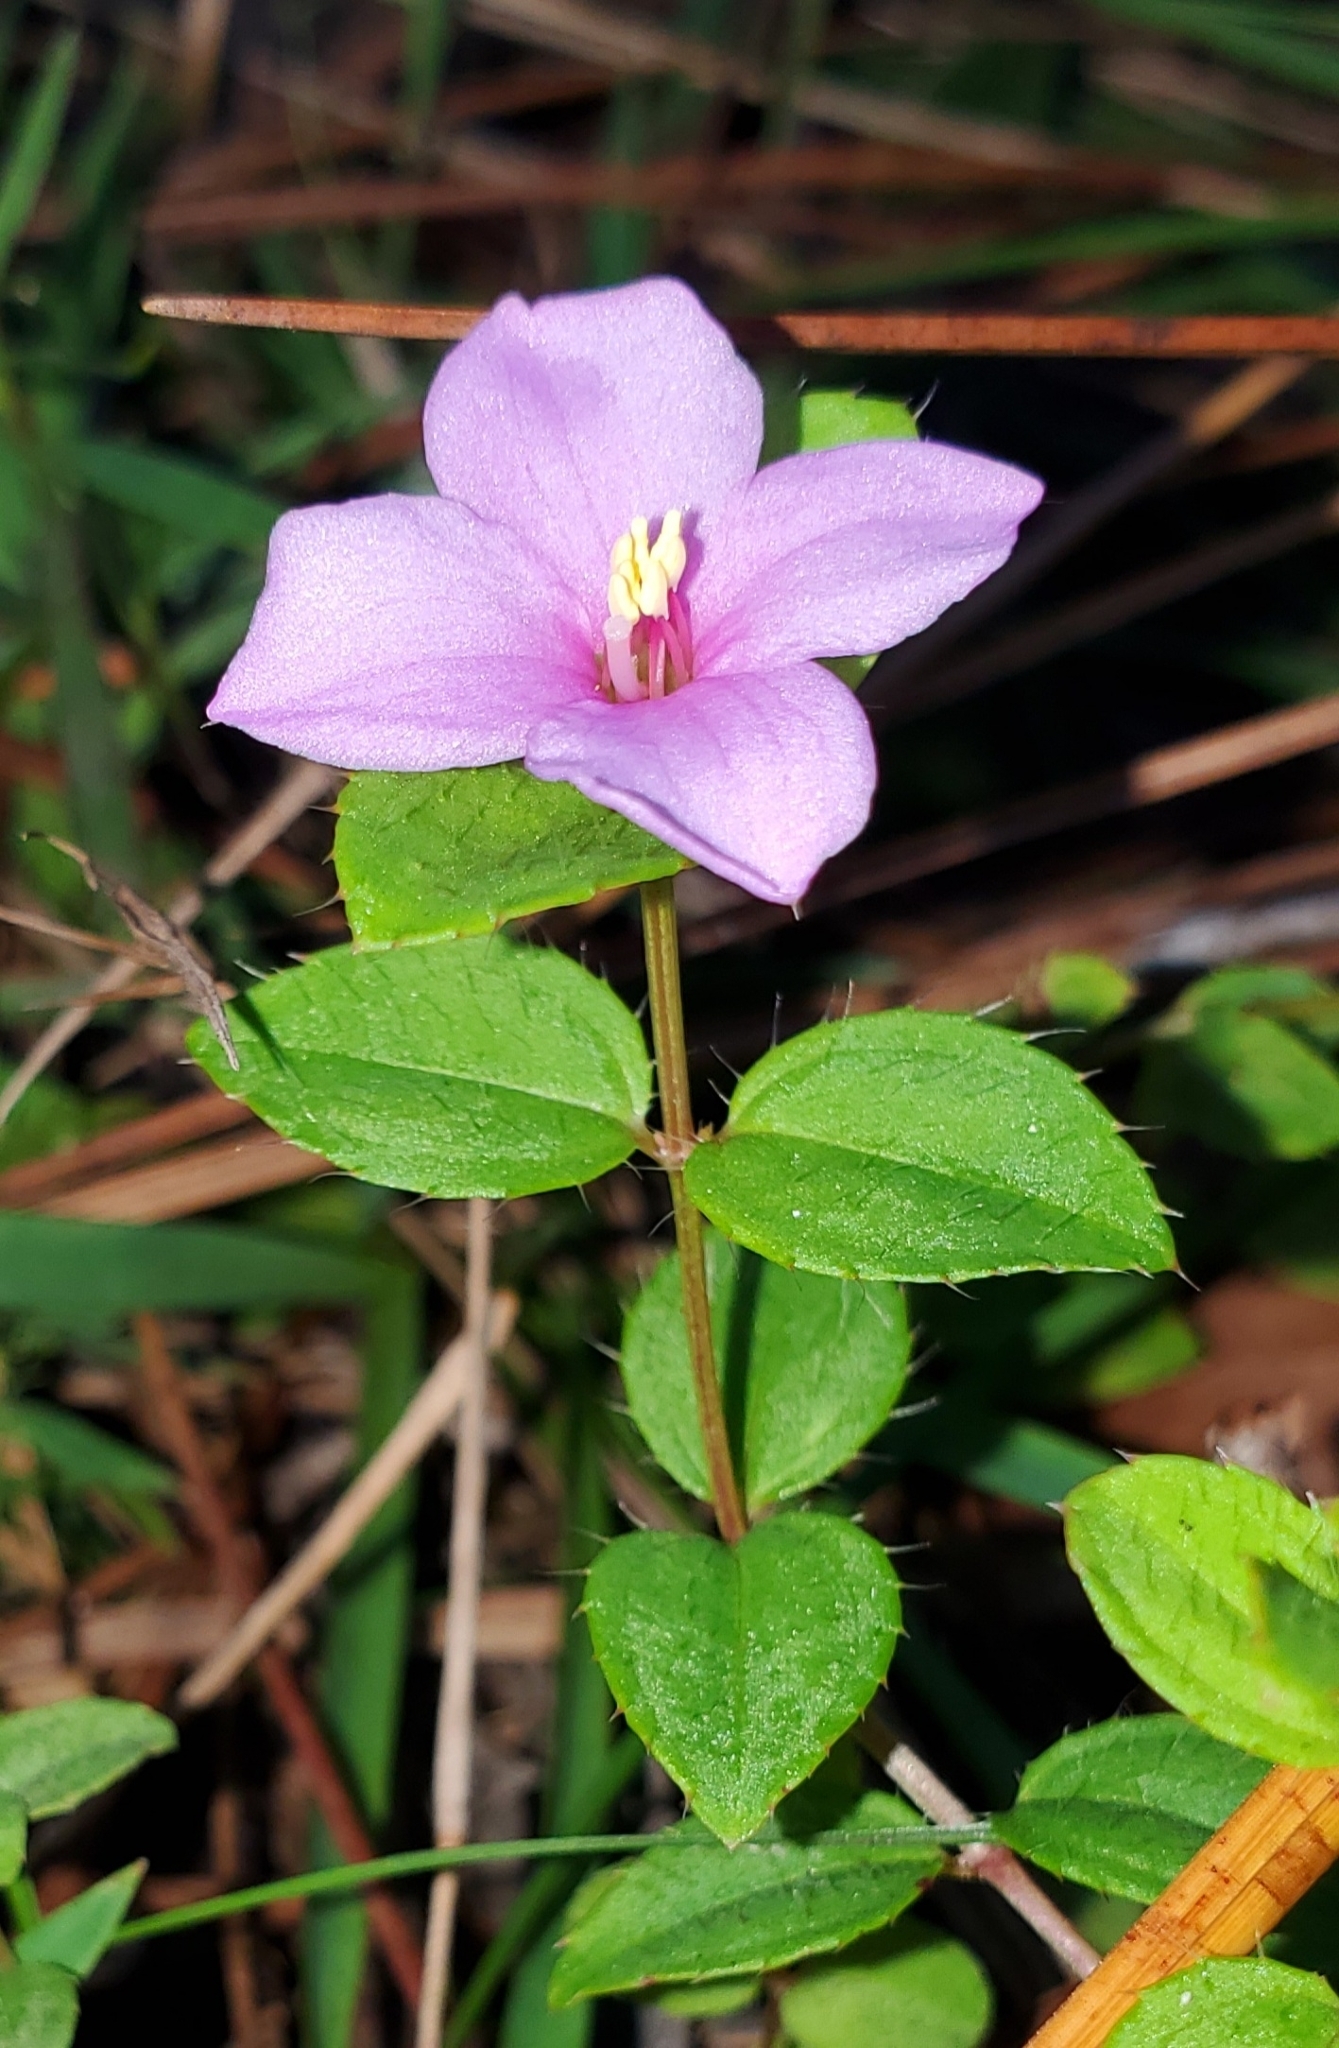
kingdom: Plantae
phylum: Tracheophyta
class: Magnoliopsida
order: Myrtales
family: Melastomataceae
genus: Rhexia
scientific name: Rhexia petiolata
